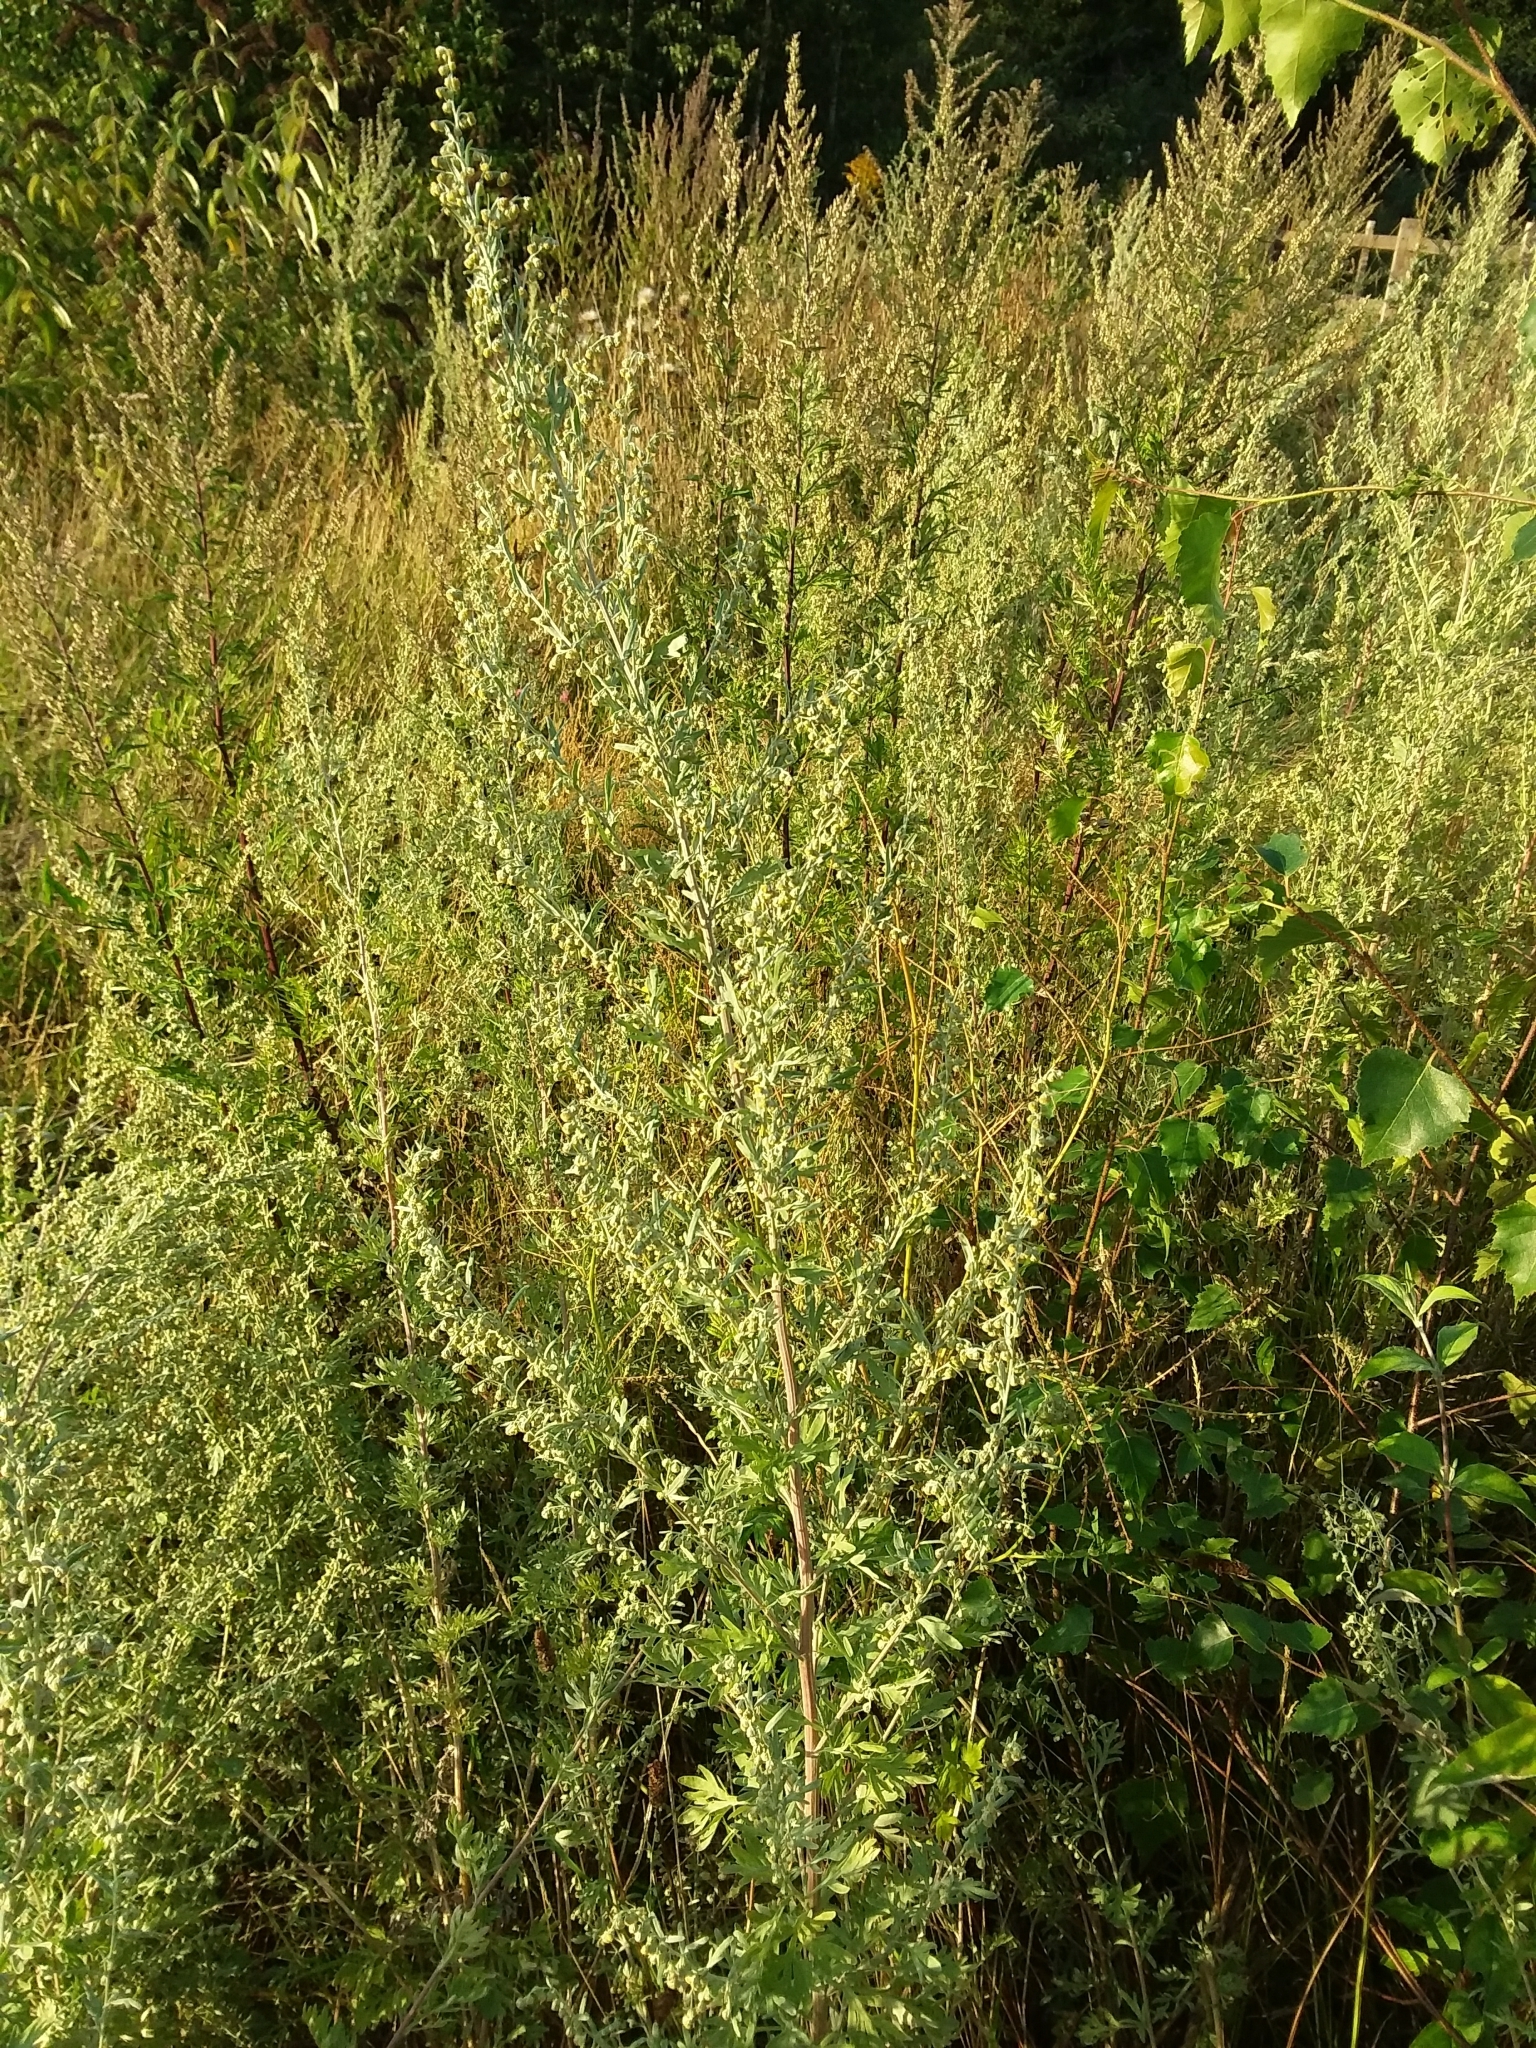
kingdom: Plantae
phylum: Tracheophyta
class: Magnoliopsida
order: Asterales
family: Asteraceae
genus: Artemisia
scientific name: Artemisia absinthium
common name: Wormwood
